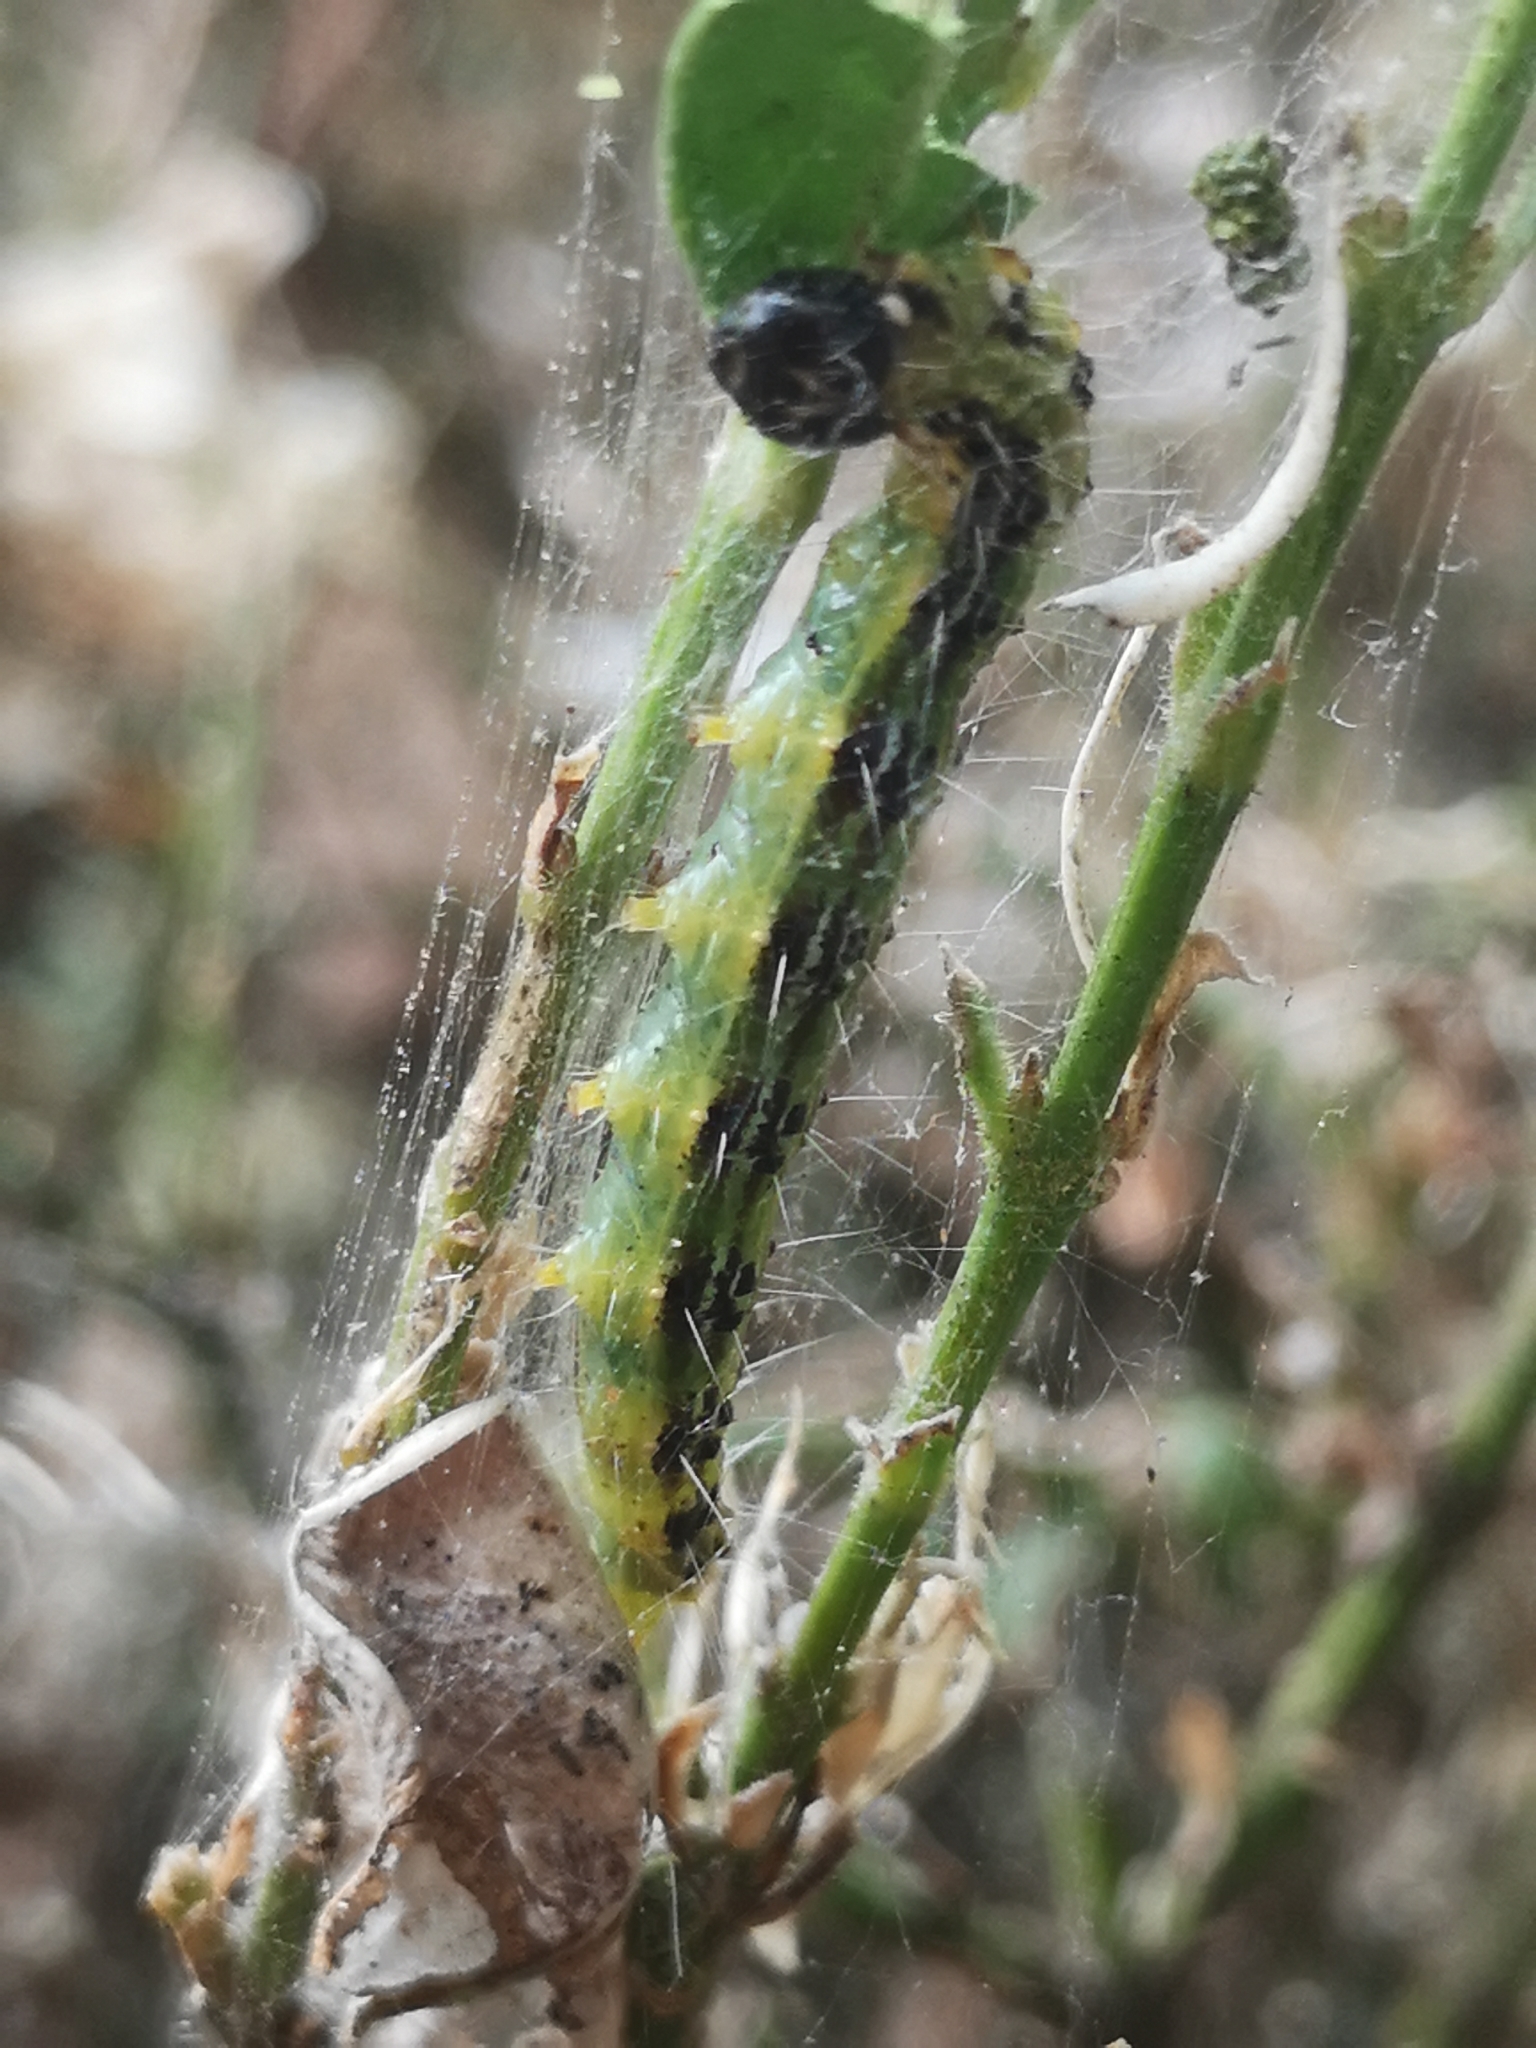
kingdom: Animalia
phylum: Arthropoda
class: Insecta
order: Lepidoptera
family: Crambidae
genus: Cydalima
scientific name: Cydalima perspectalis
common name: Box tree moth
